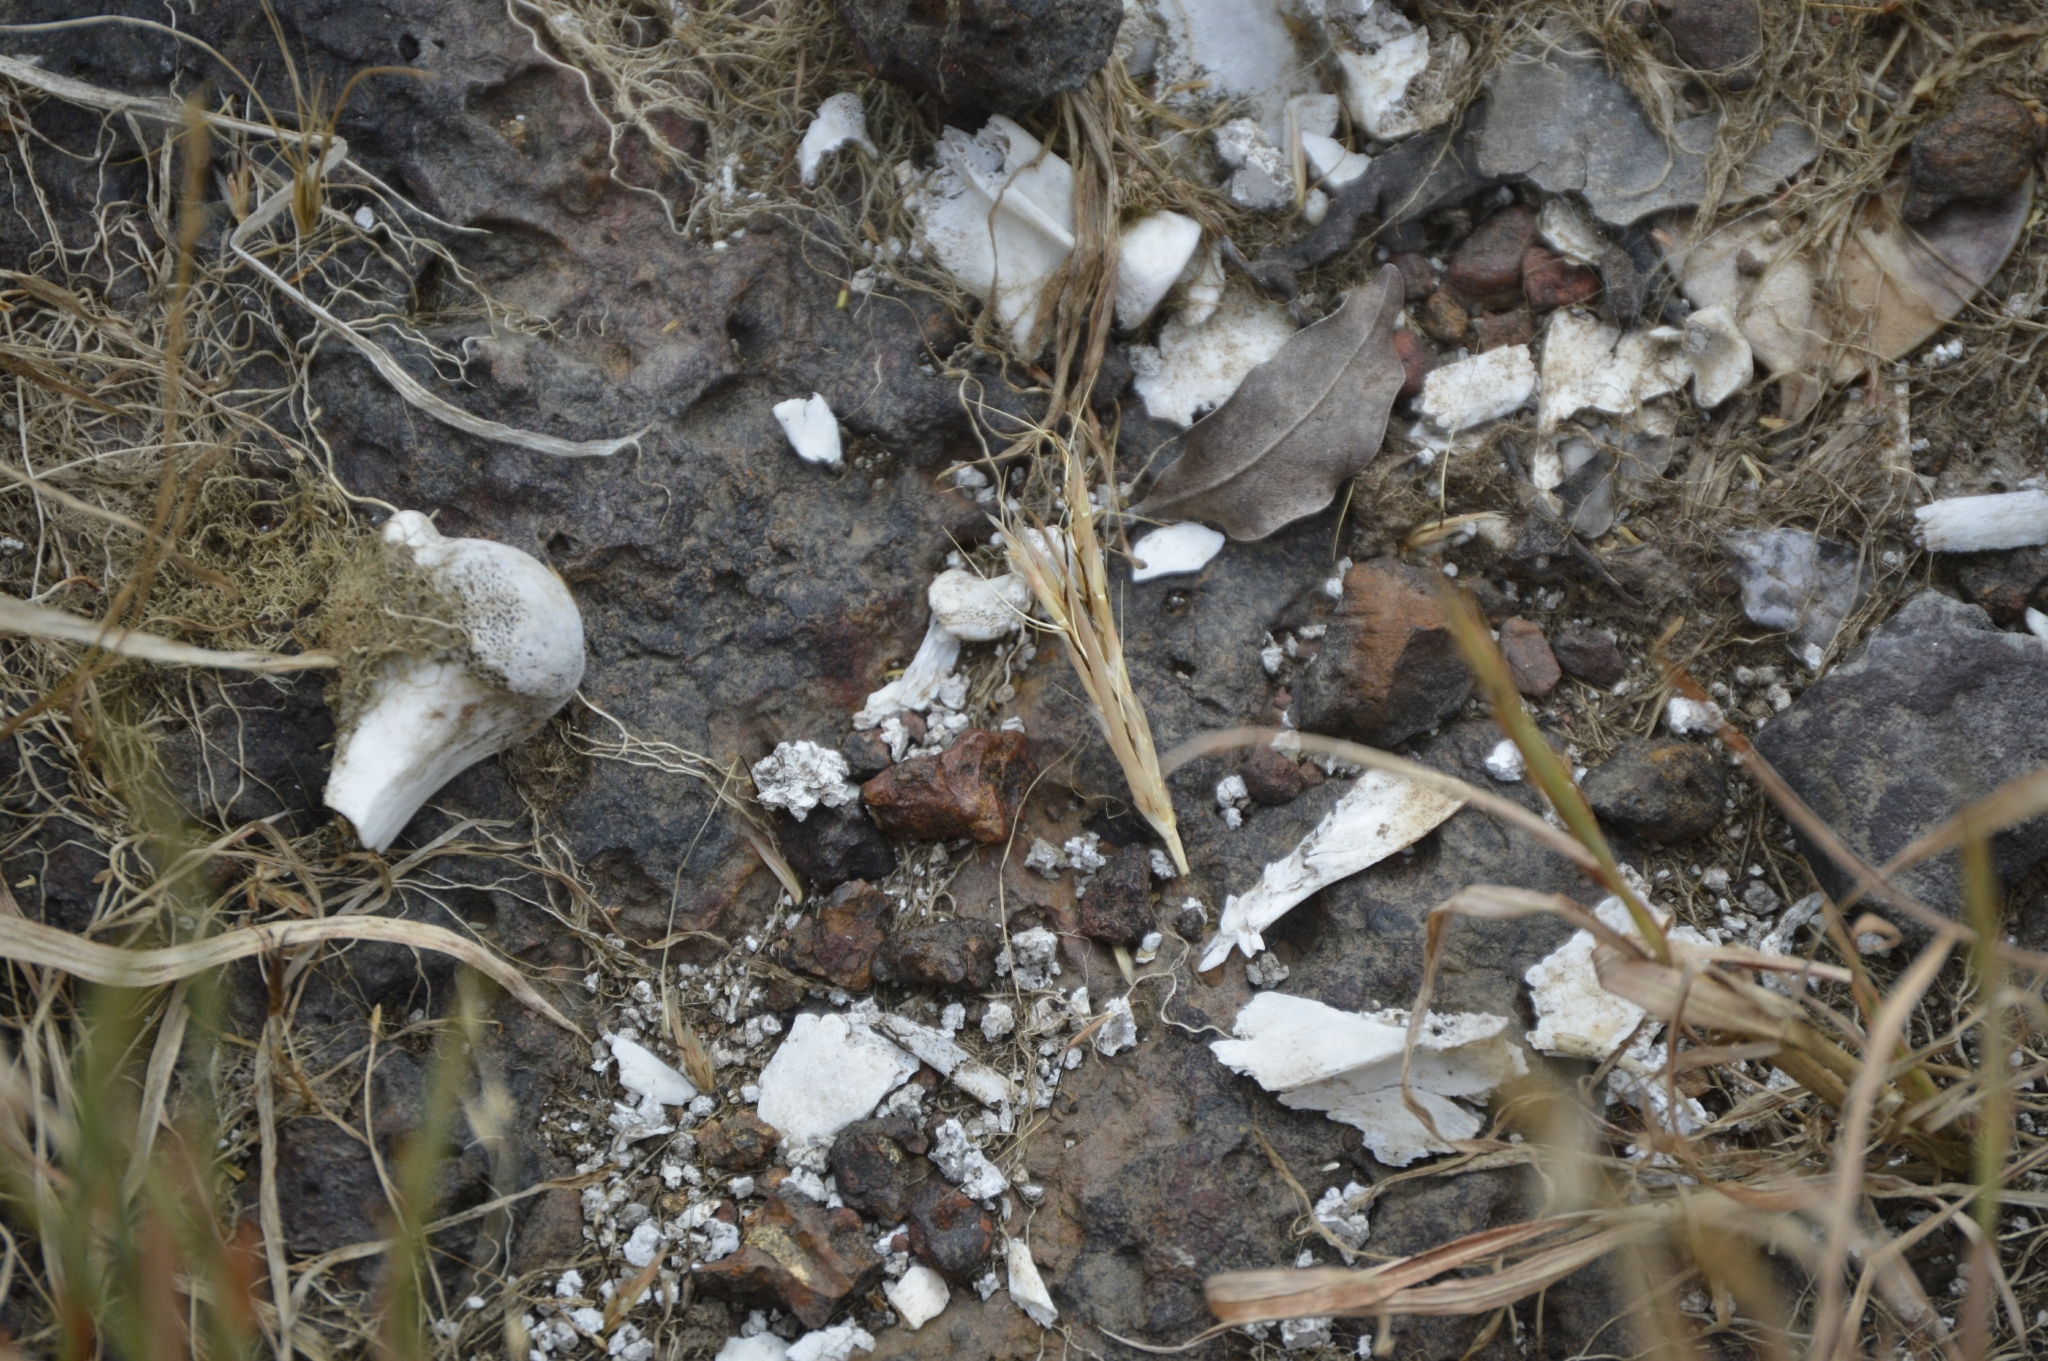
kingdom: Animalia
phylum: Chordata
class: Mammalia
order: Carnivora
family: Felidae
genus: Panthera
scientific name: Panthera pardus
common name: Leopard
